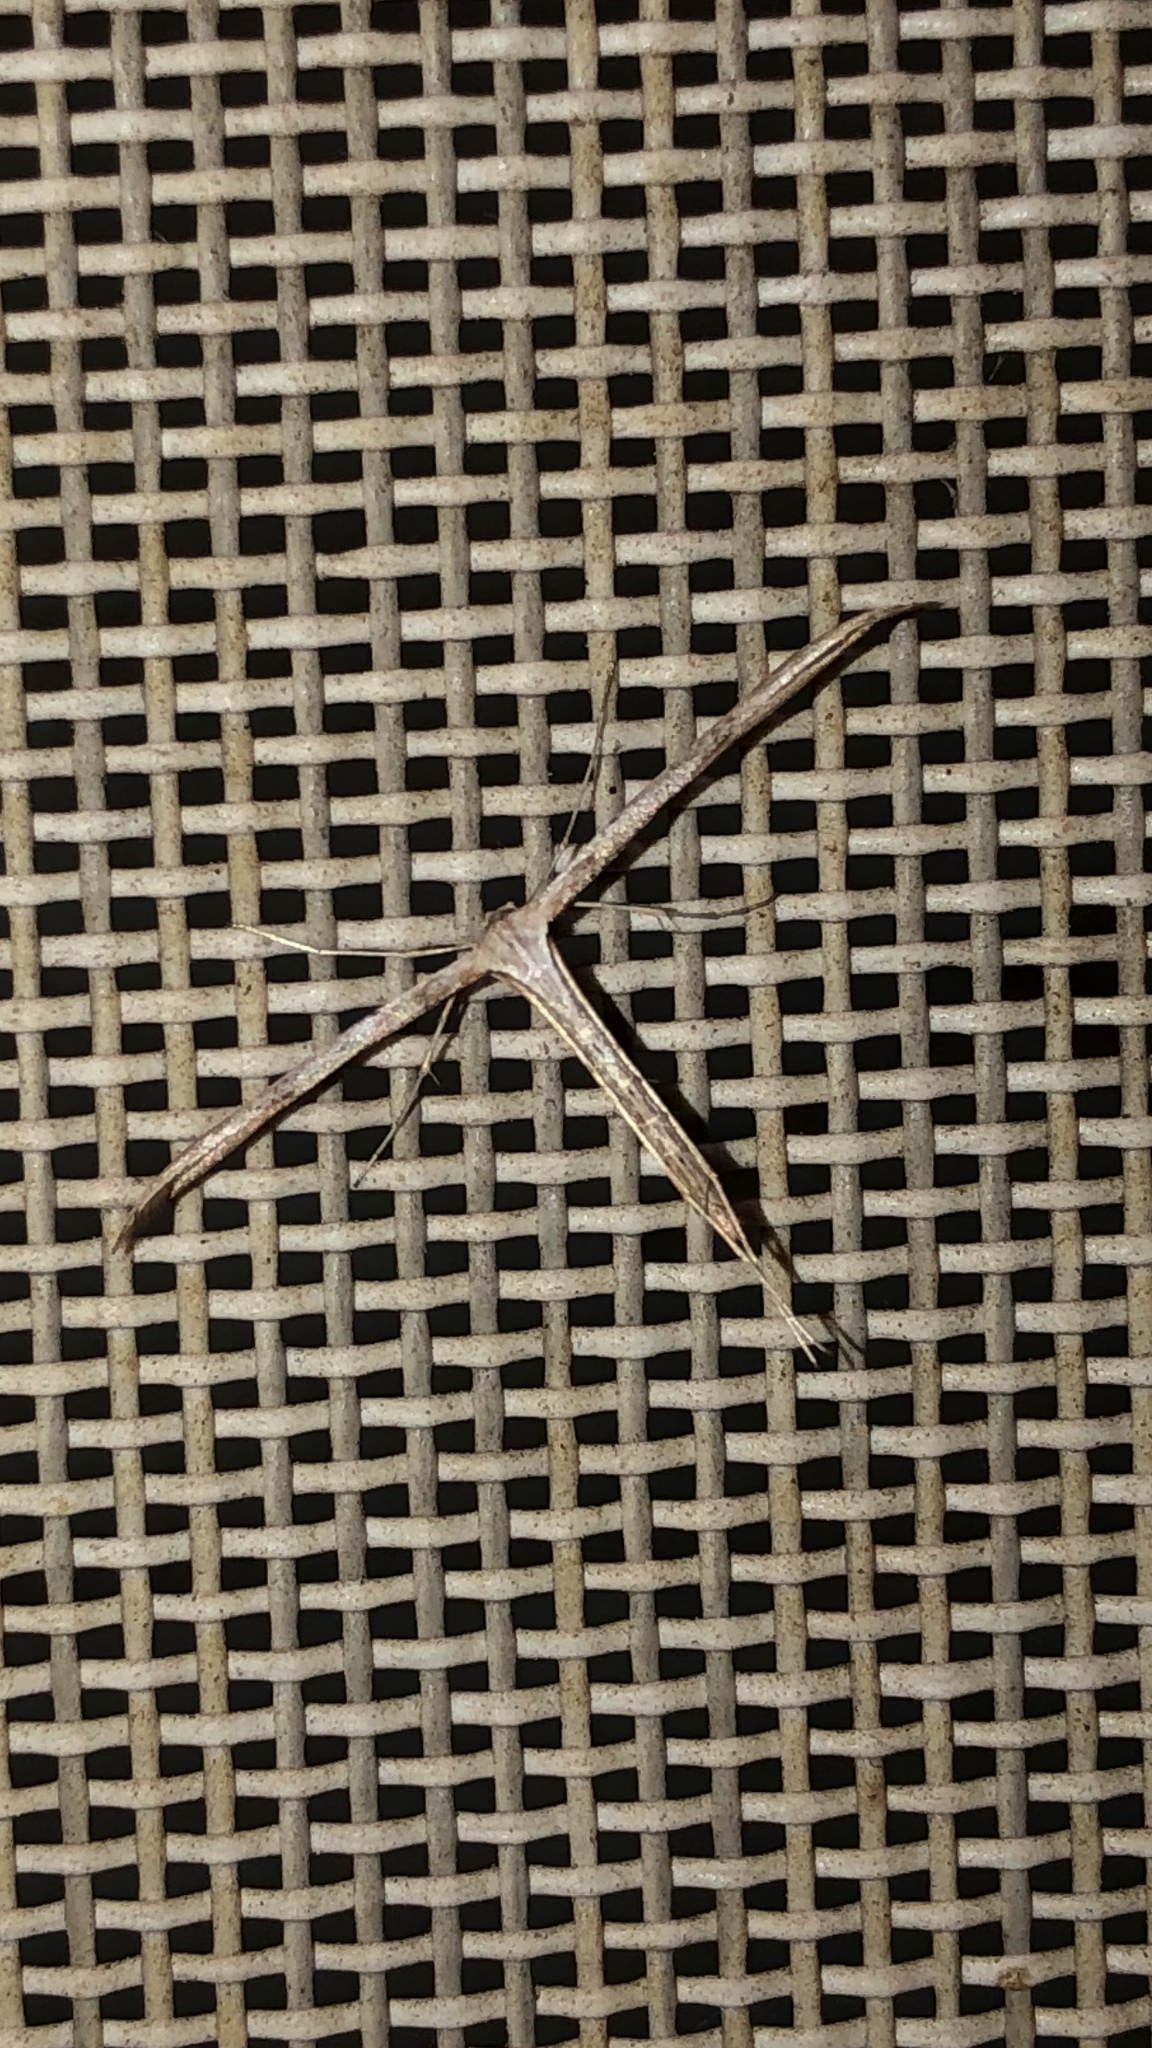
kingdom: Animalia
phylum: Arthropoda
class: Insecta
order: Lepidoptera
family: Pterophoridae
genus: Emmelina
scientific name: Emmelina monodactyla
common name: Common plume
